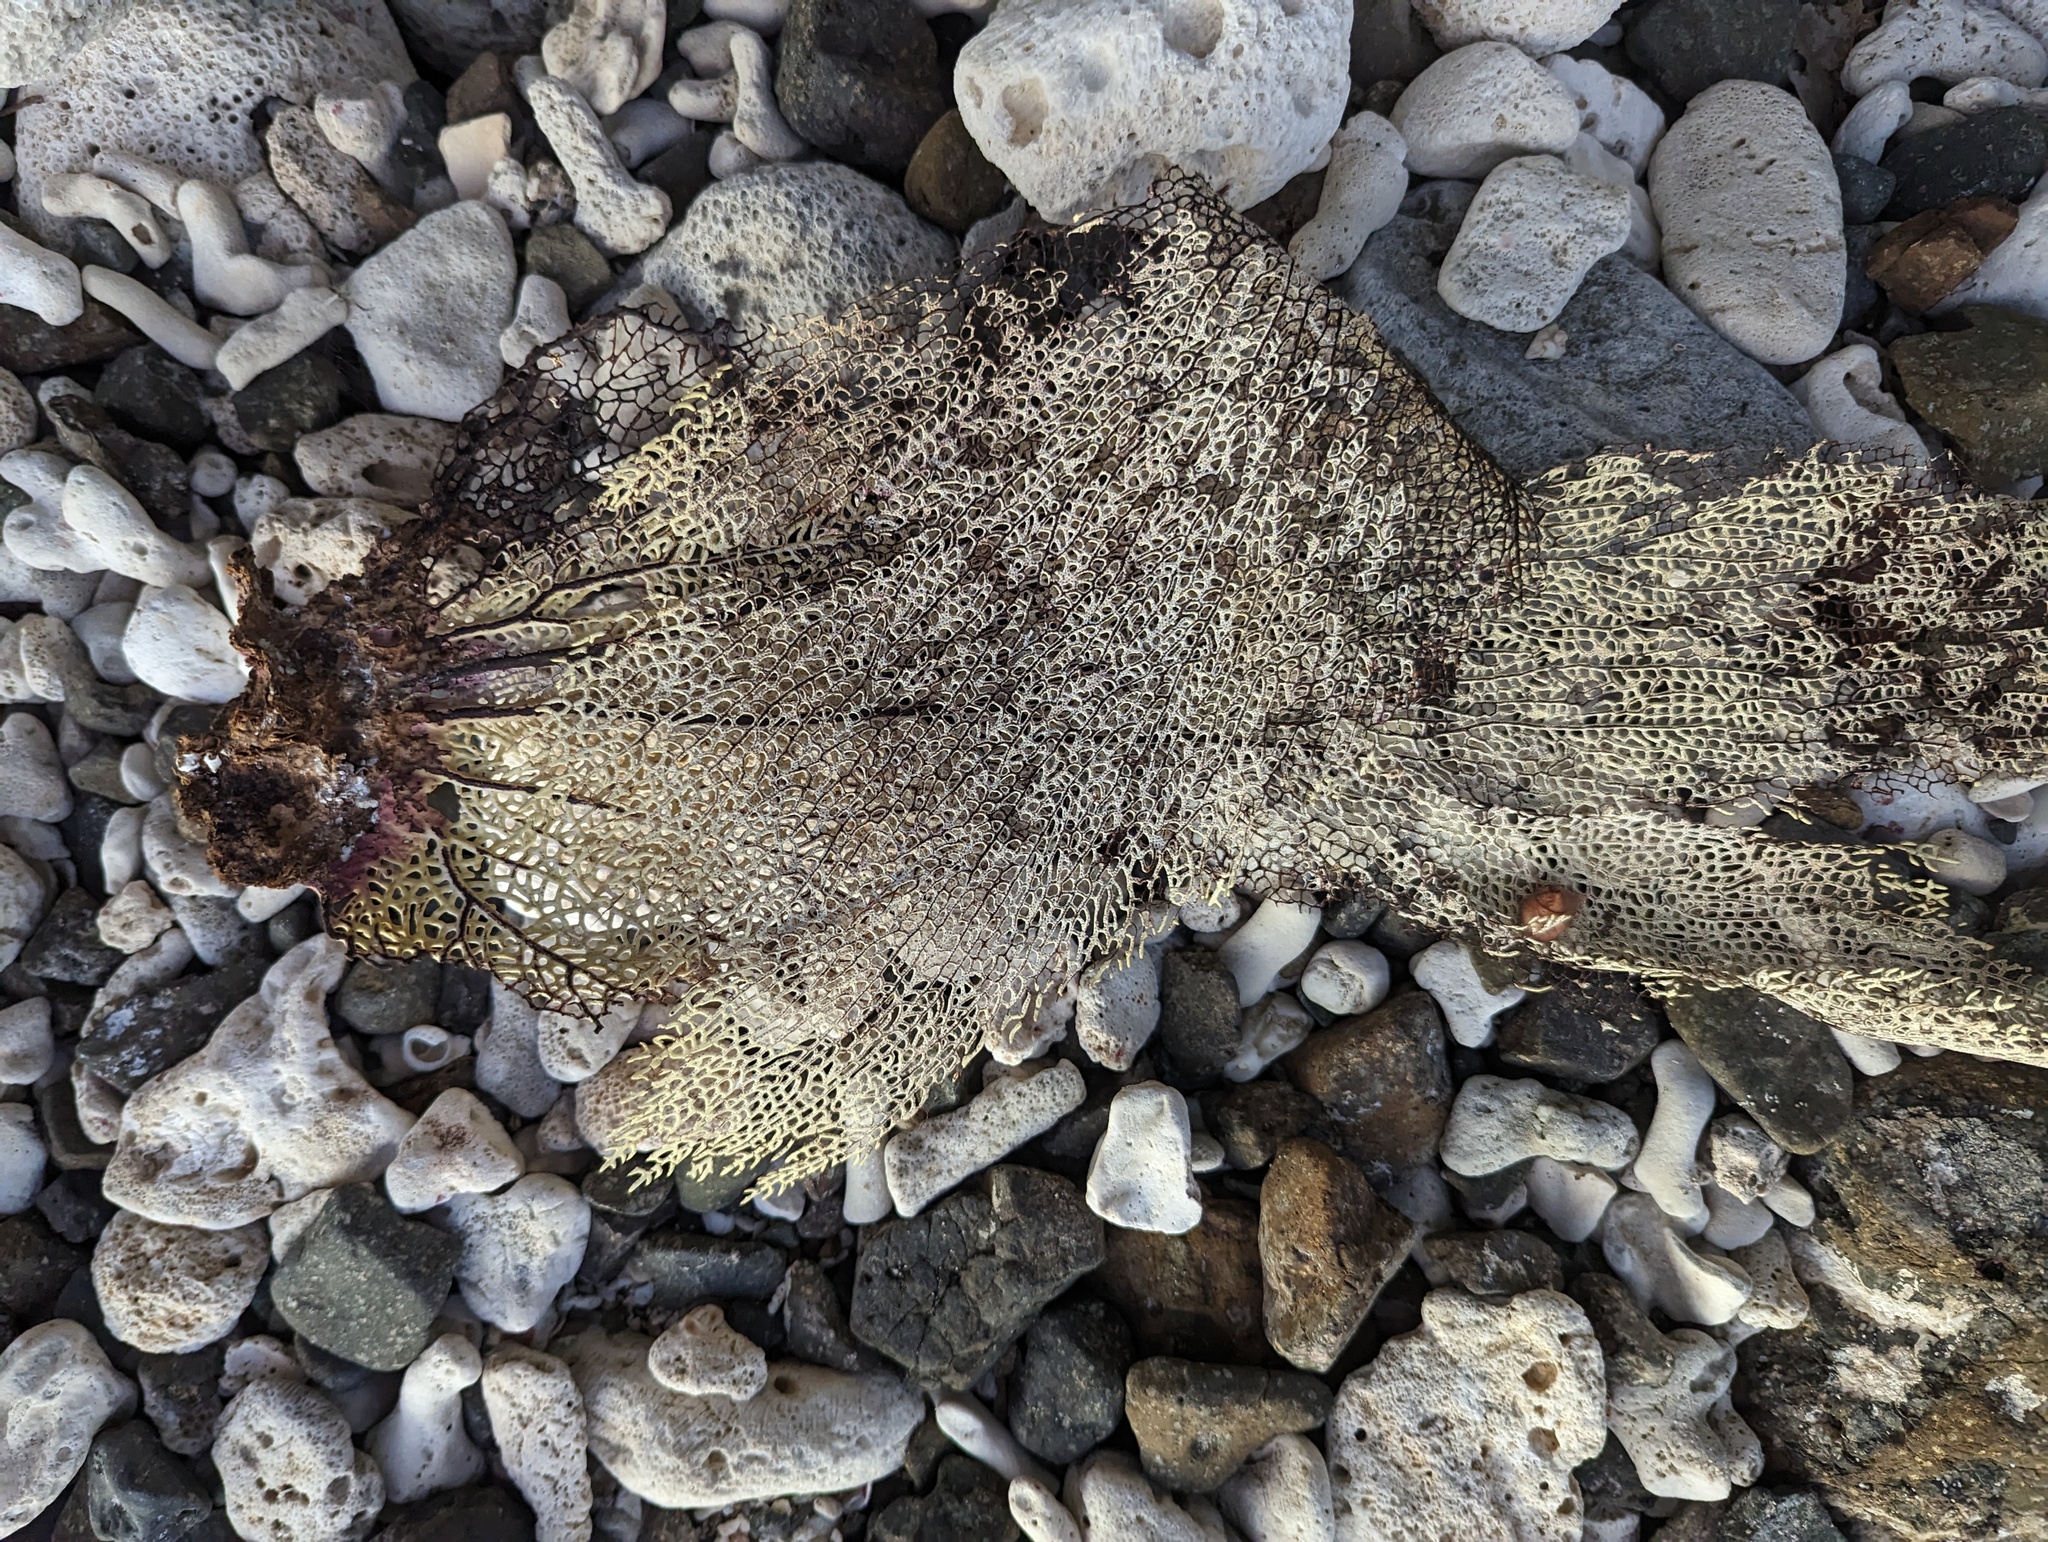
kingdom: Animalia
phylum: Cnidaria
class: Anthozoa
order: Malacalcyonacea
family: Gorgoniidae
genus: Gorgonia
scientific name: Gorgonia ventalina
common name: Common sea fan
